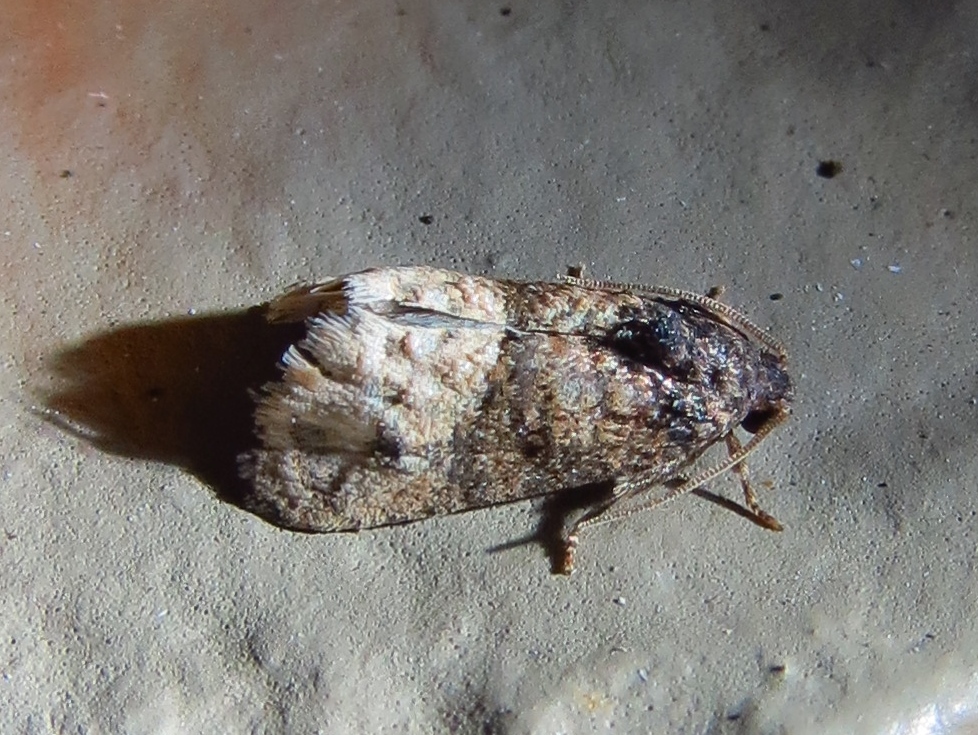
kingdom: Animalia
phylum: Arthropoda
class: Insecta
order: Lepidoptera
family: Tortricidae
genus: Ecdytolopha
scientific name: Ecdytolopha mana
